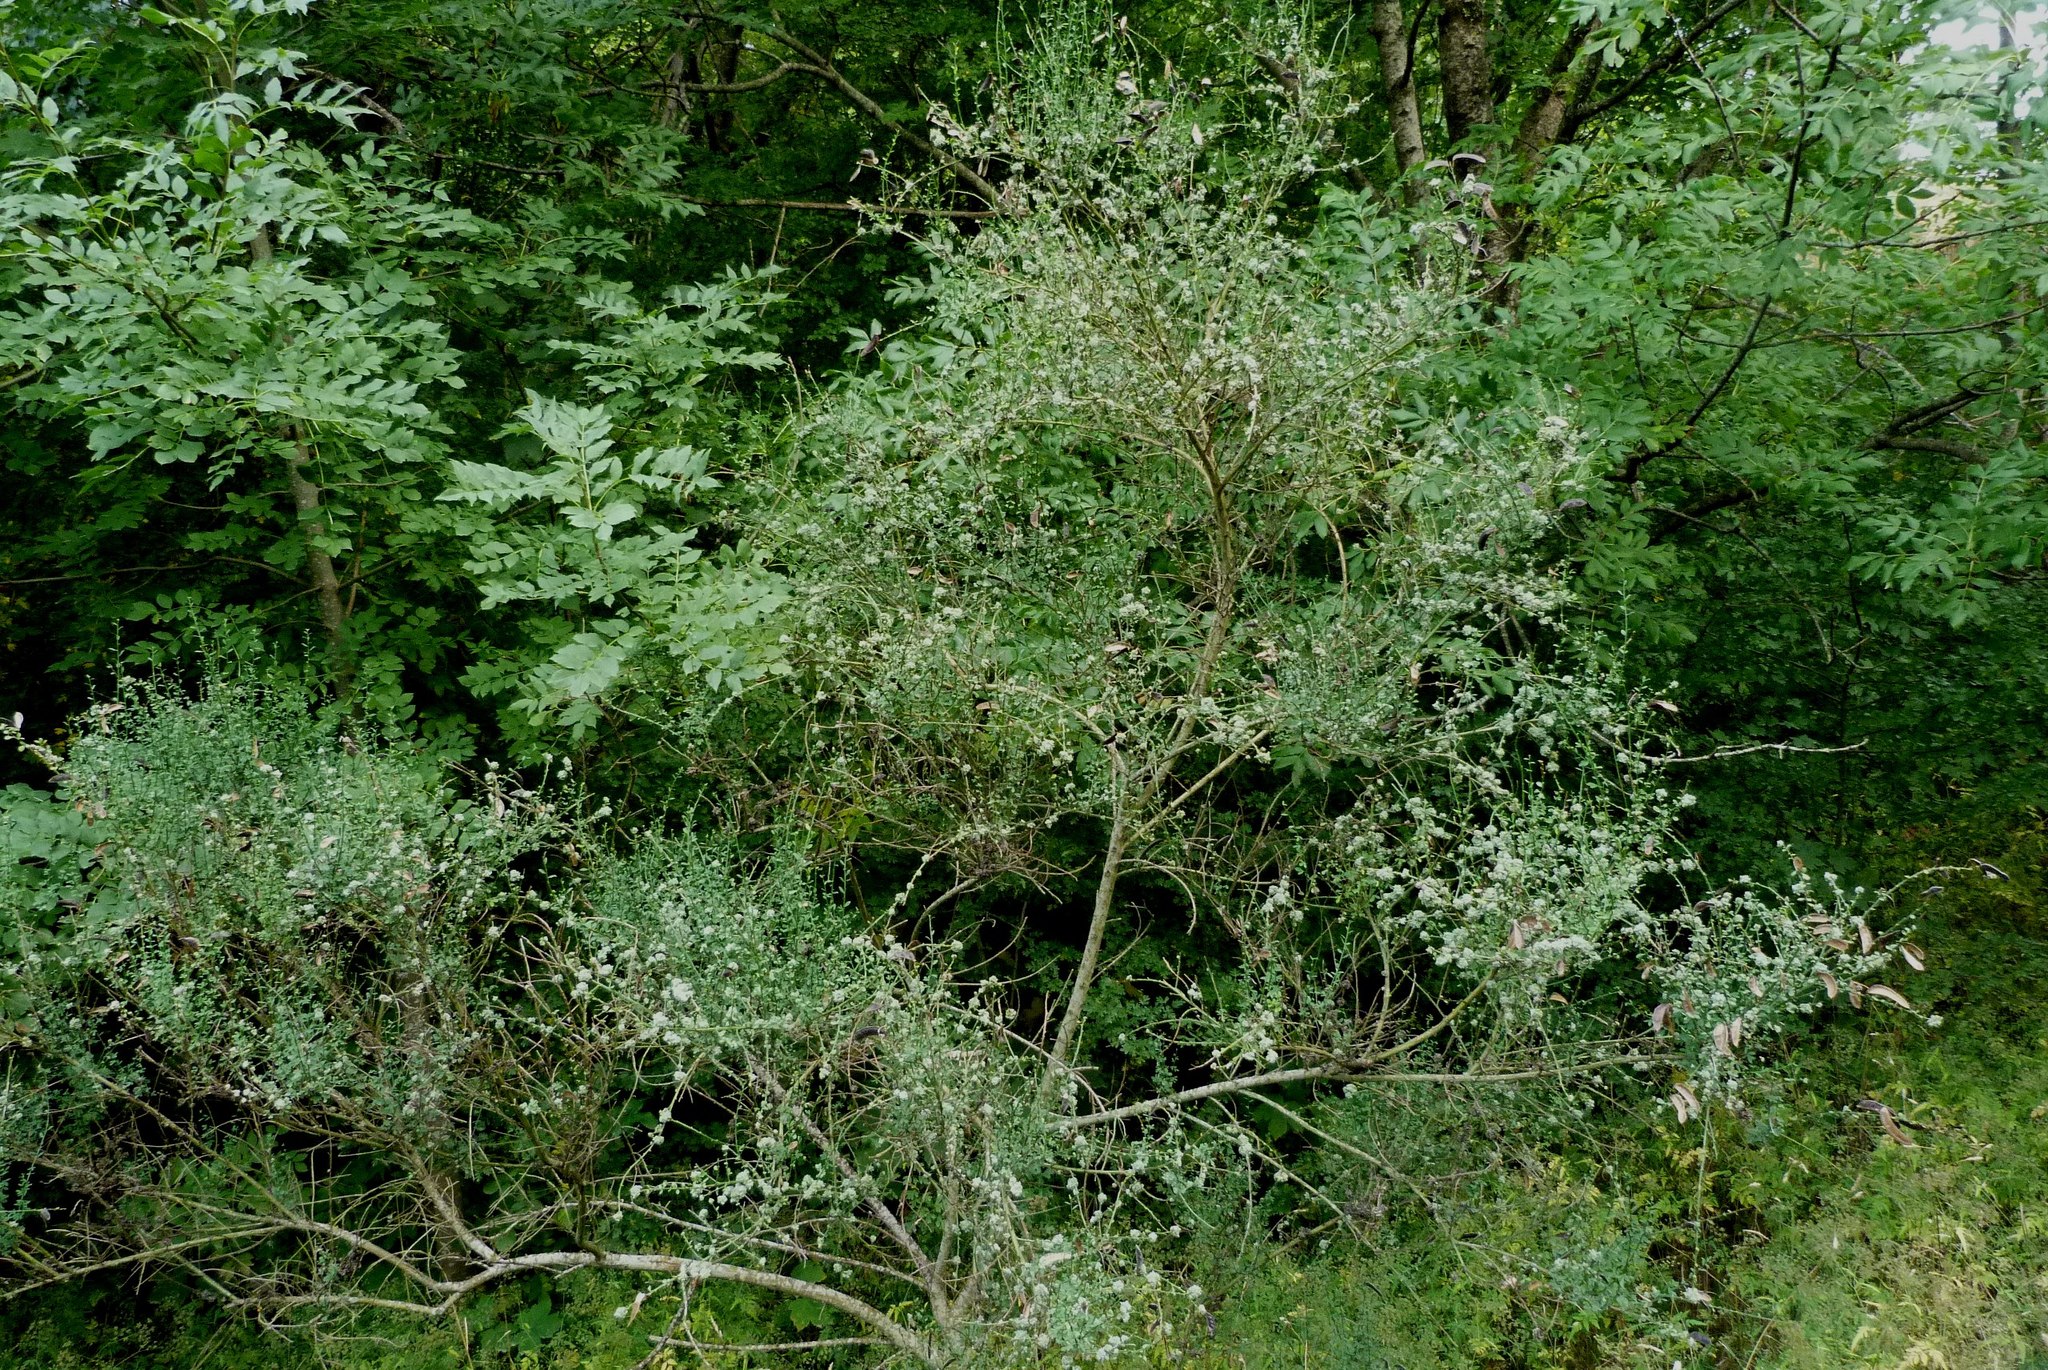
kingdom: Animalia
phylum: Arthropoda
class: Arachnida
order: Trombidiformes
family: Eriophyidae
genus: Aceria
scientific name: Aceria genistae
